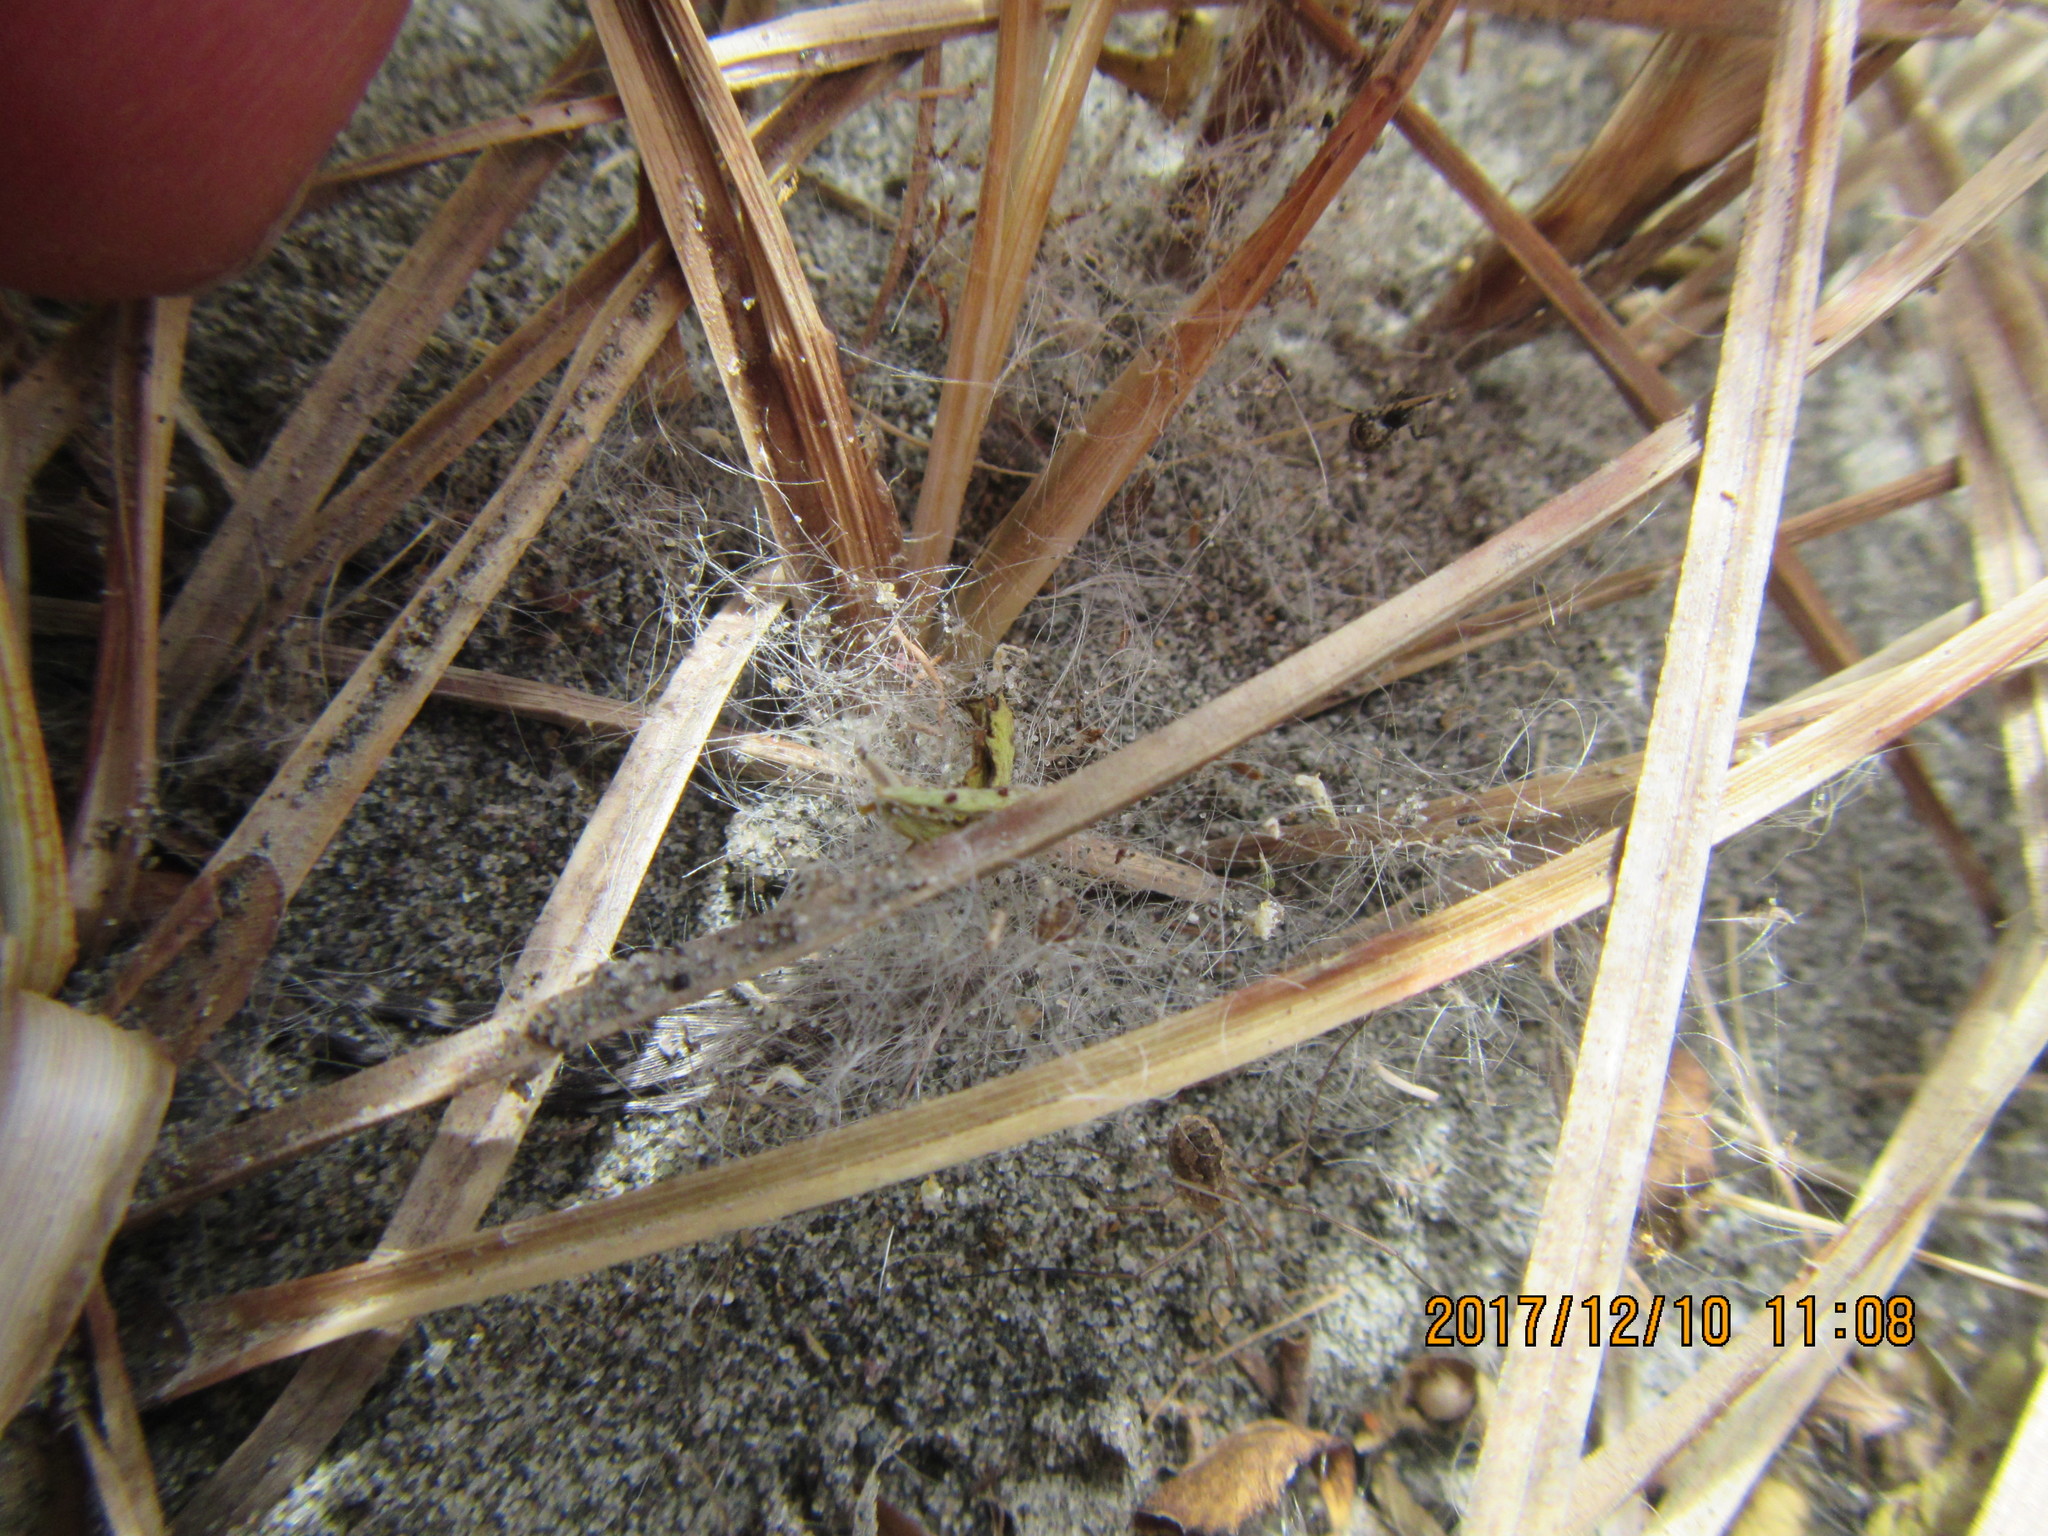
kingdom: Animalia
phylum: Arthropoda
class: Arachnida
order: Opiliones
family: Phalangiidae
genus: Phalangium
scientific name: Phalangium opilio
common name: Daddy longleg
